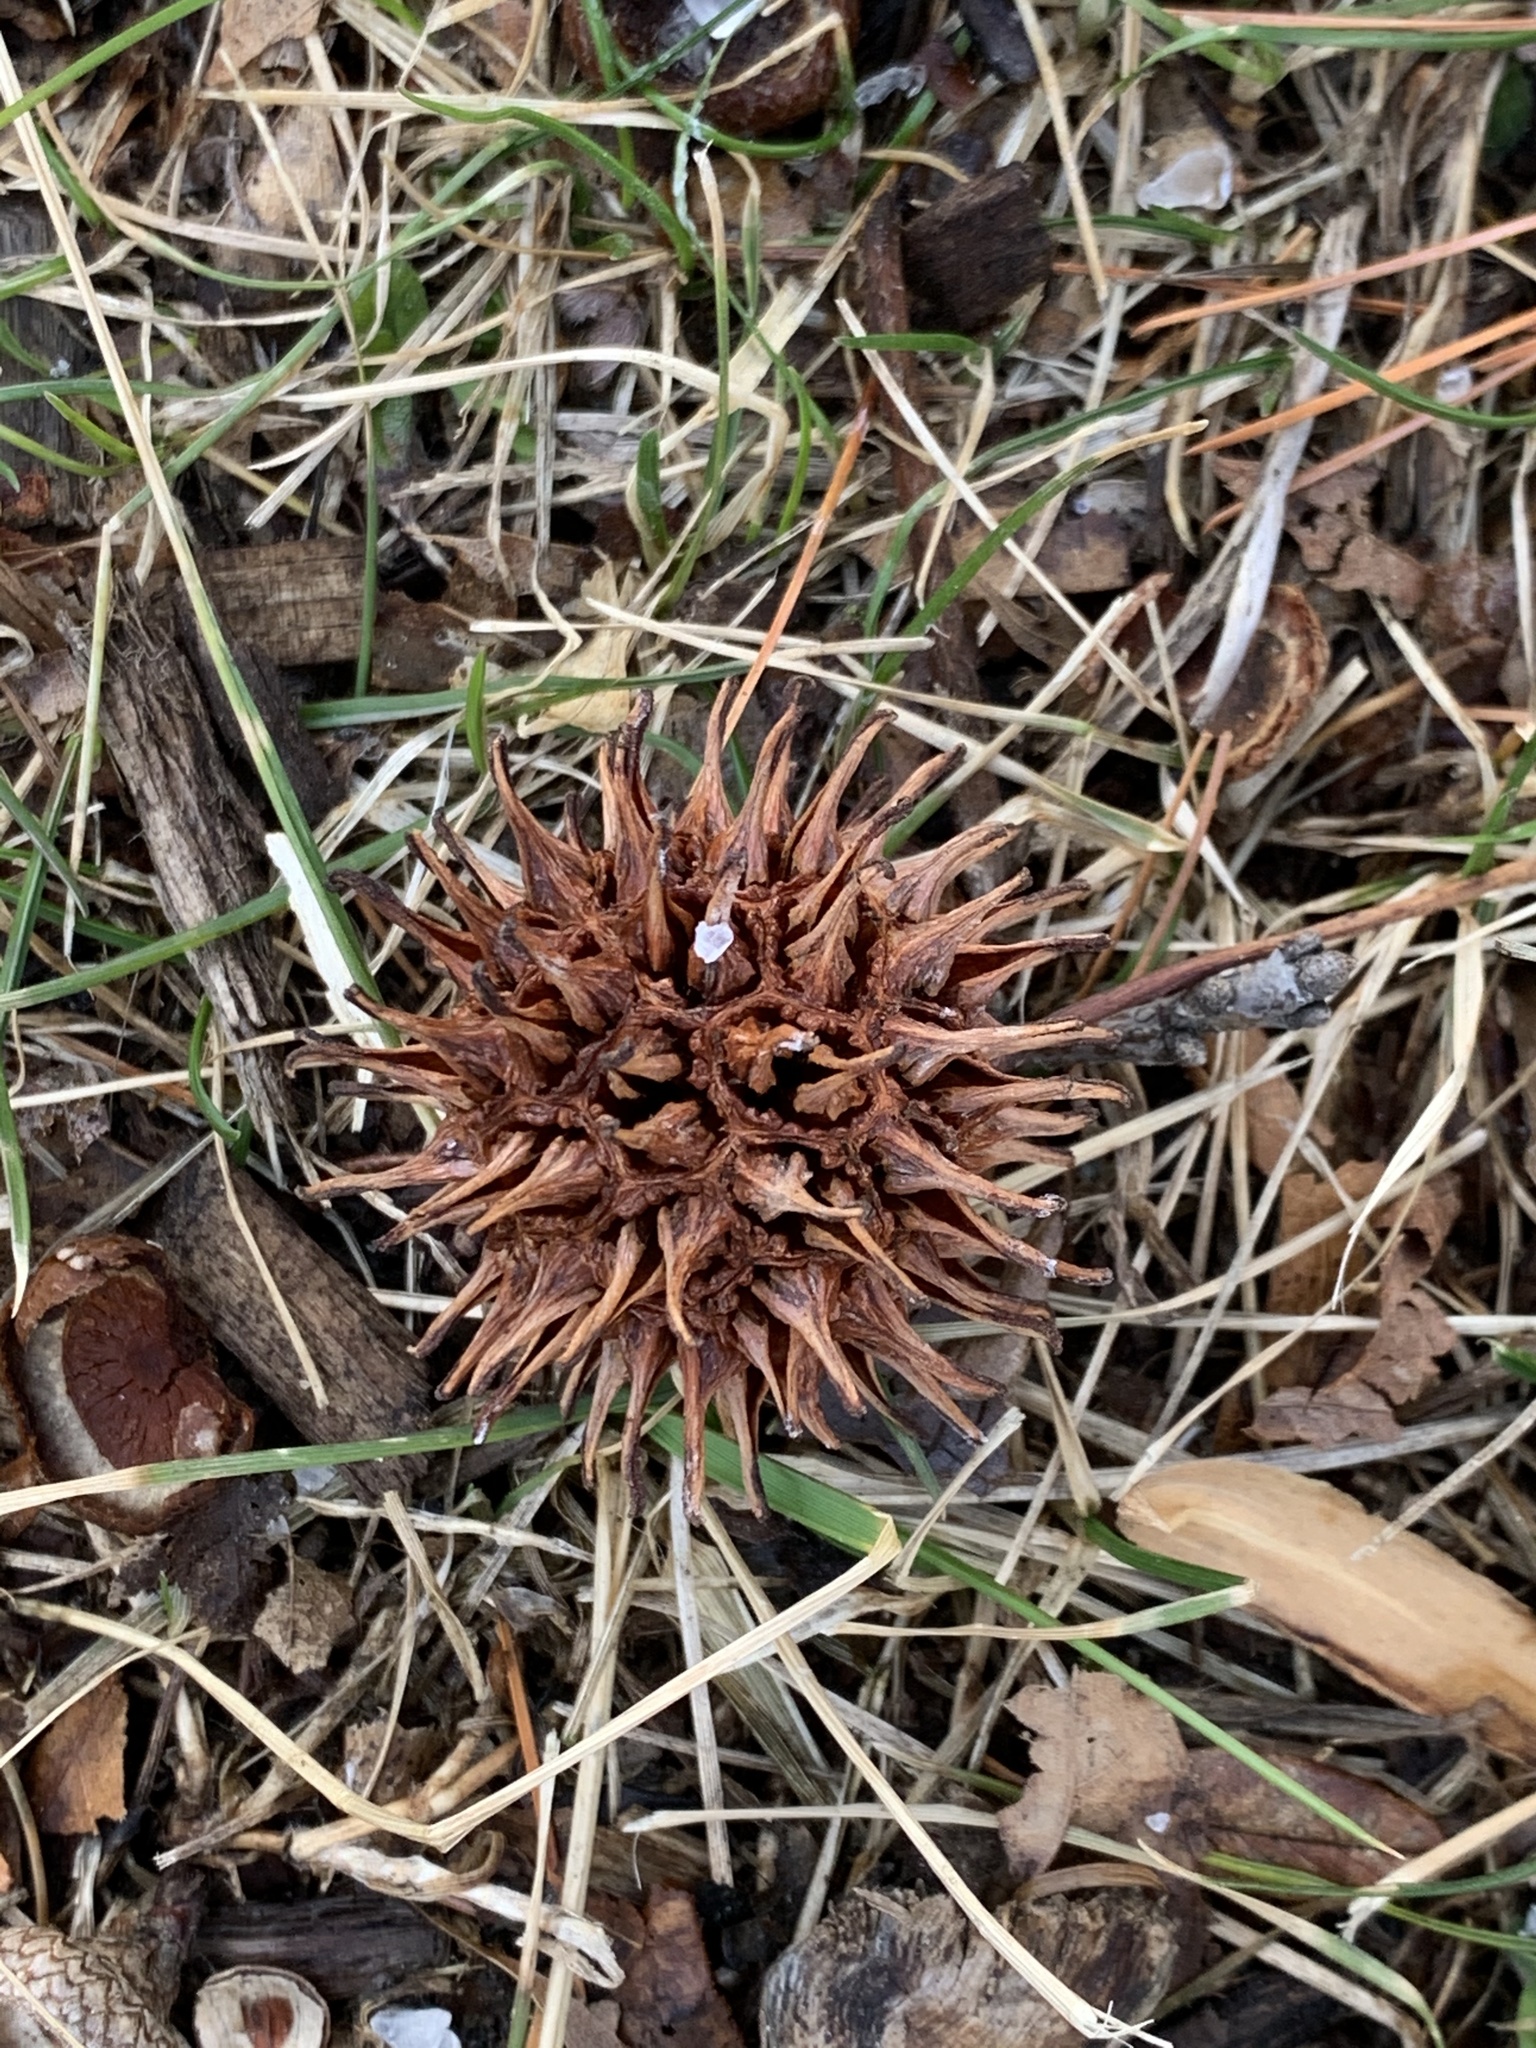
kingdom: Plantae
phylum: Tracheophyta
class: Magnoliopsida
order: Saxifragales
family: Altingiaceae
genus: Liquidambar
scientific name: Liquidambar styraciflua
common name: Sweet gum
